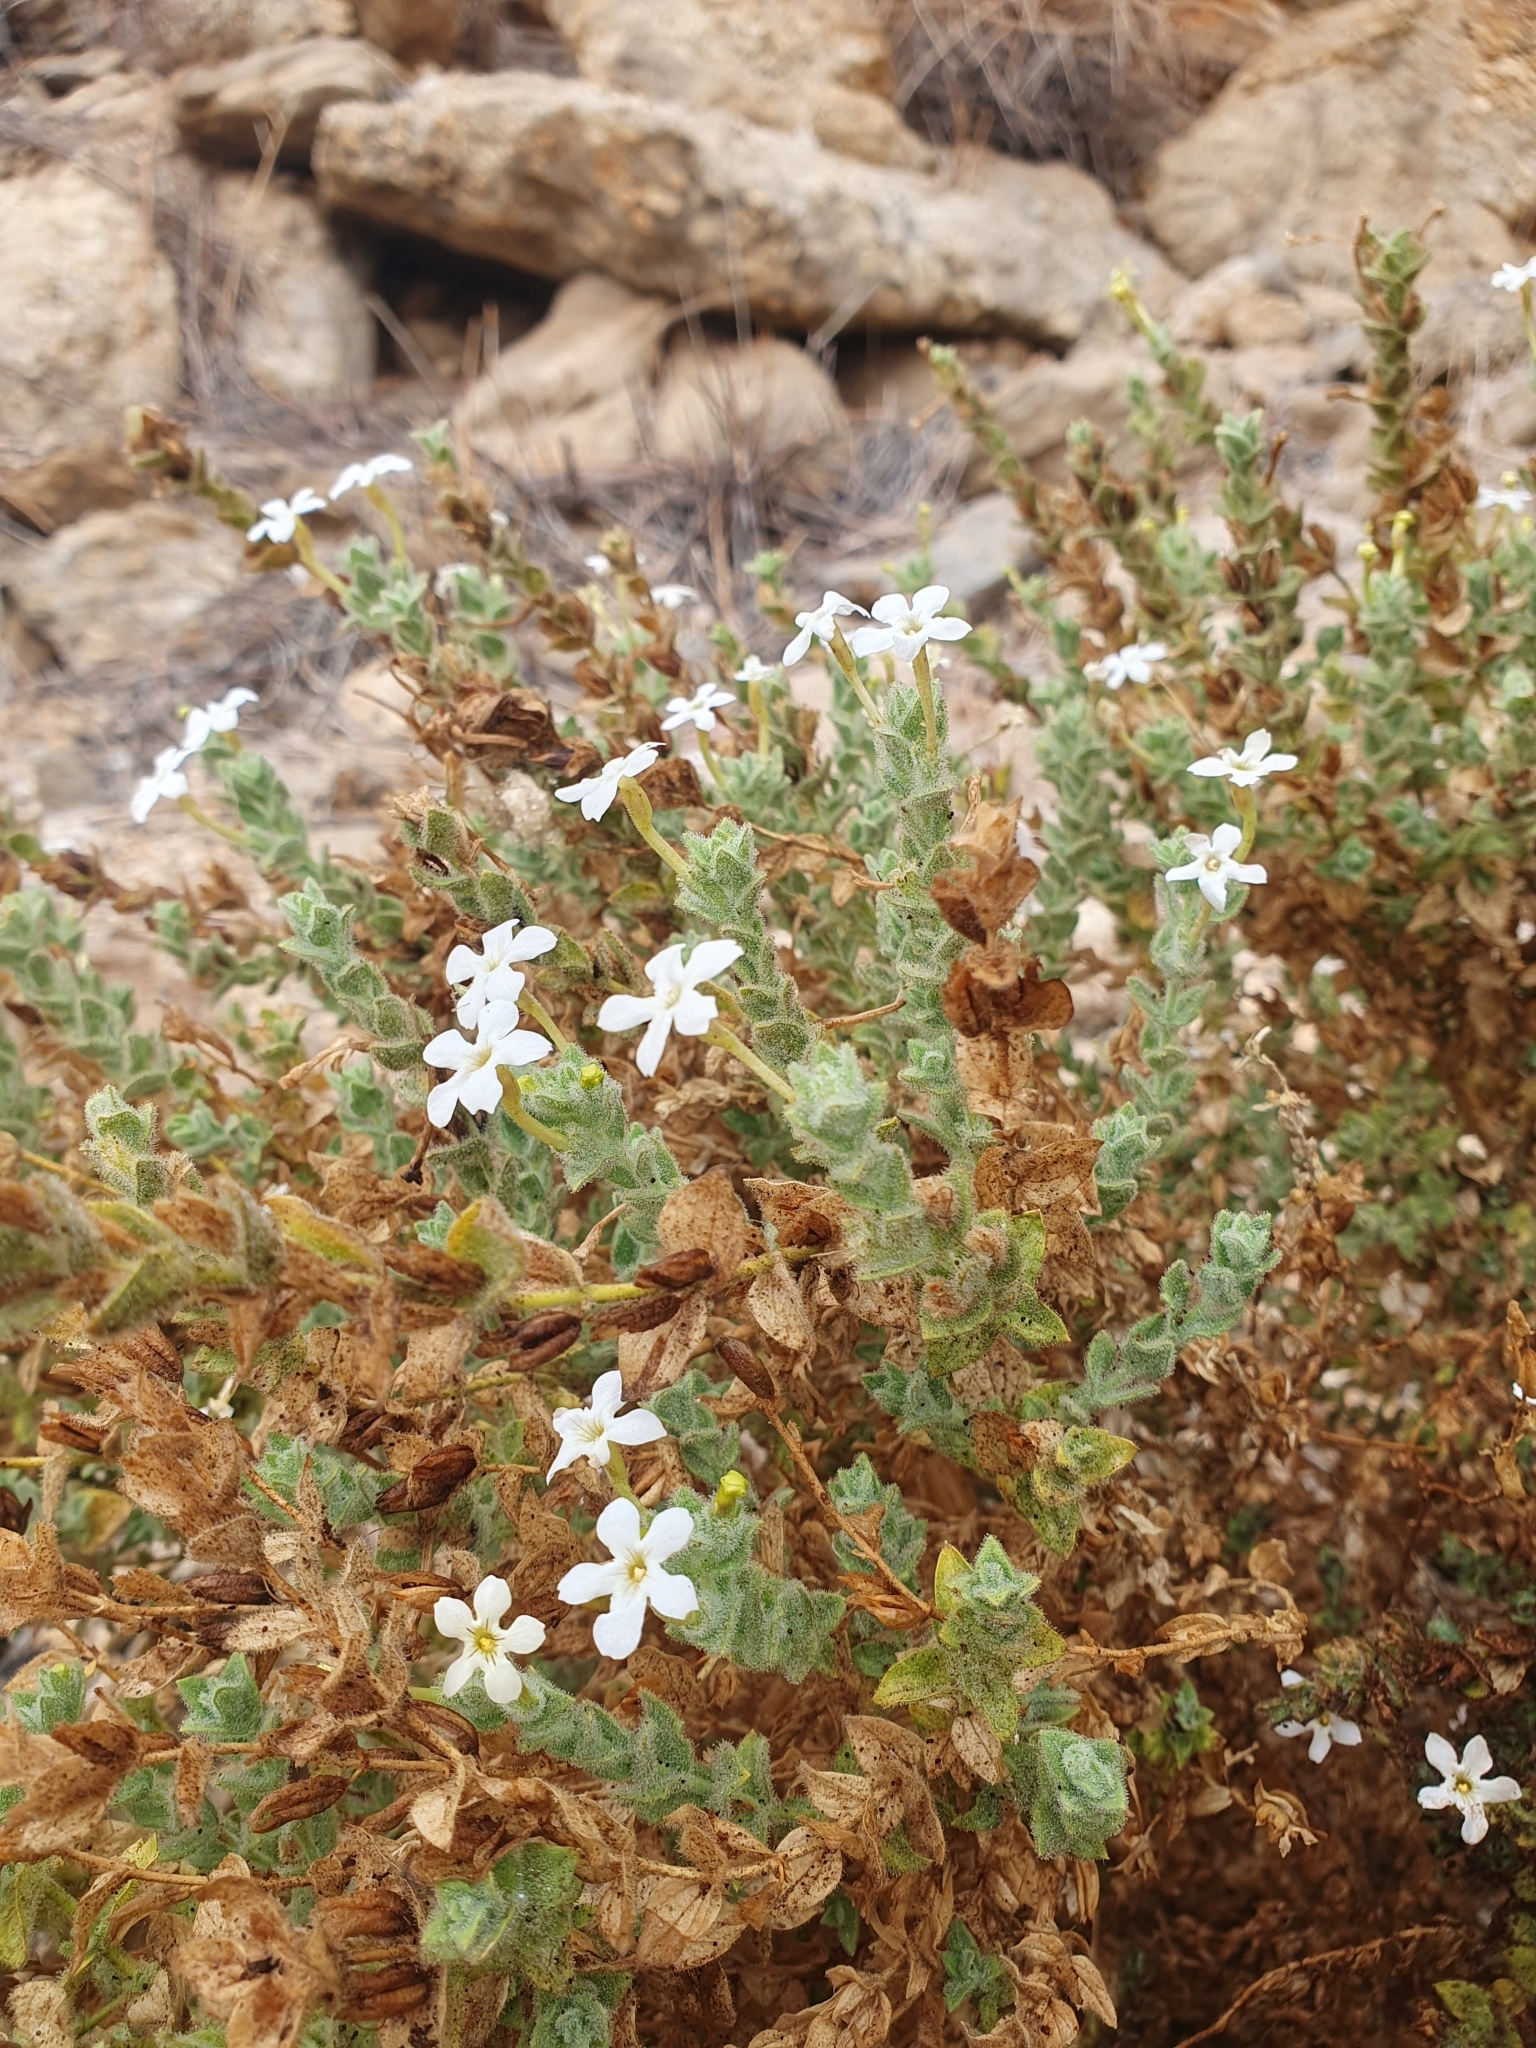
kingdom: Plantae
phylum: Tracheophyta
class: Magnoliopsida
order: Lamiales
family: Scrophulariaceae
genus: Jamesbrittenia
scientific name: Jamesbrittenia maxii
